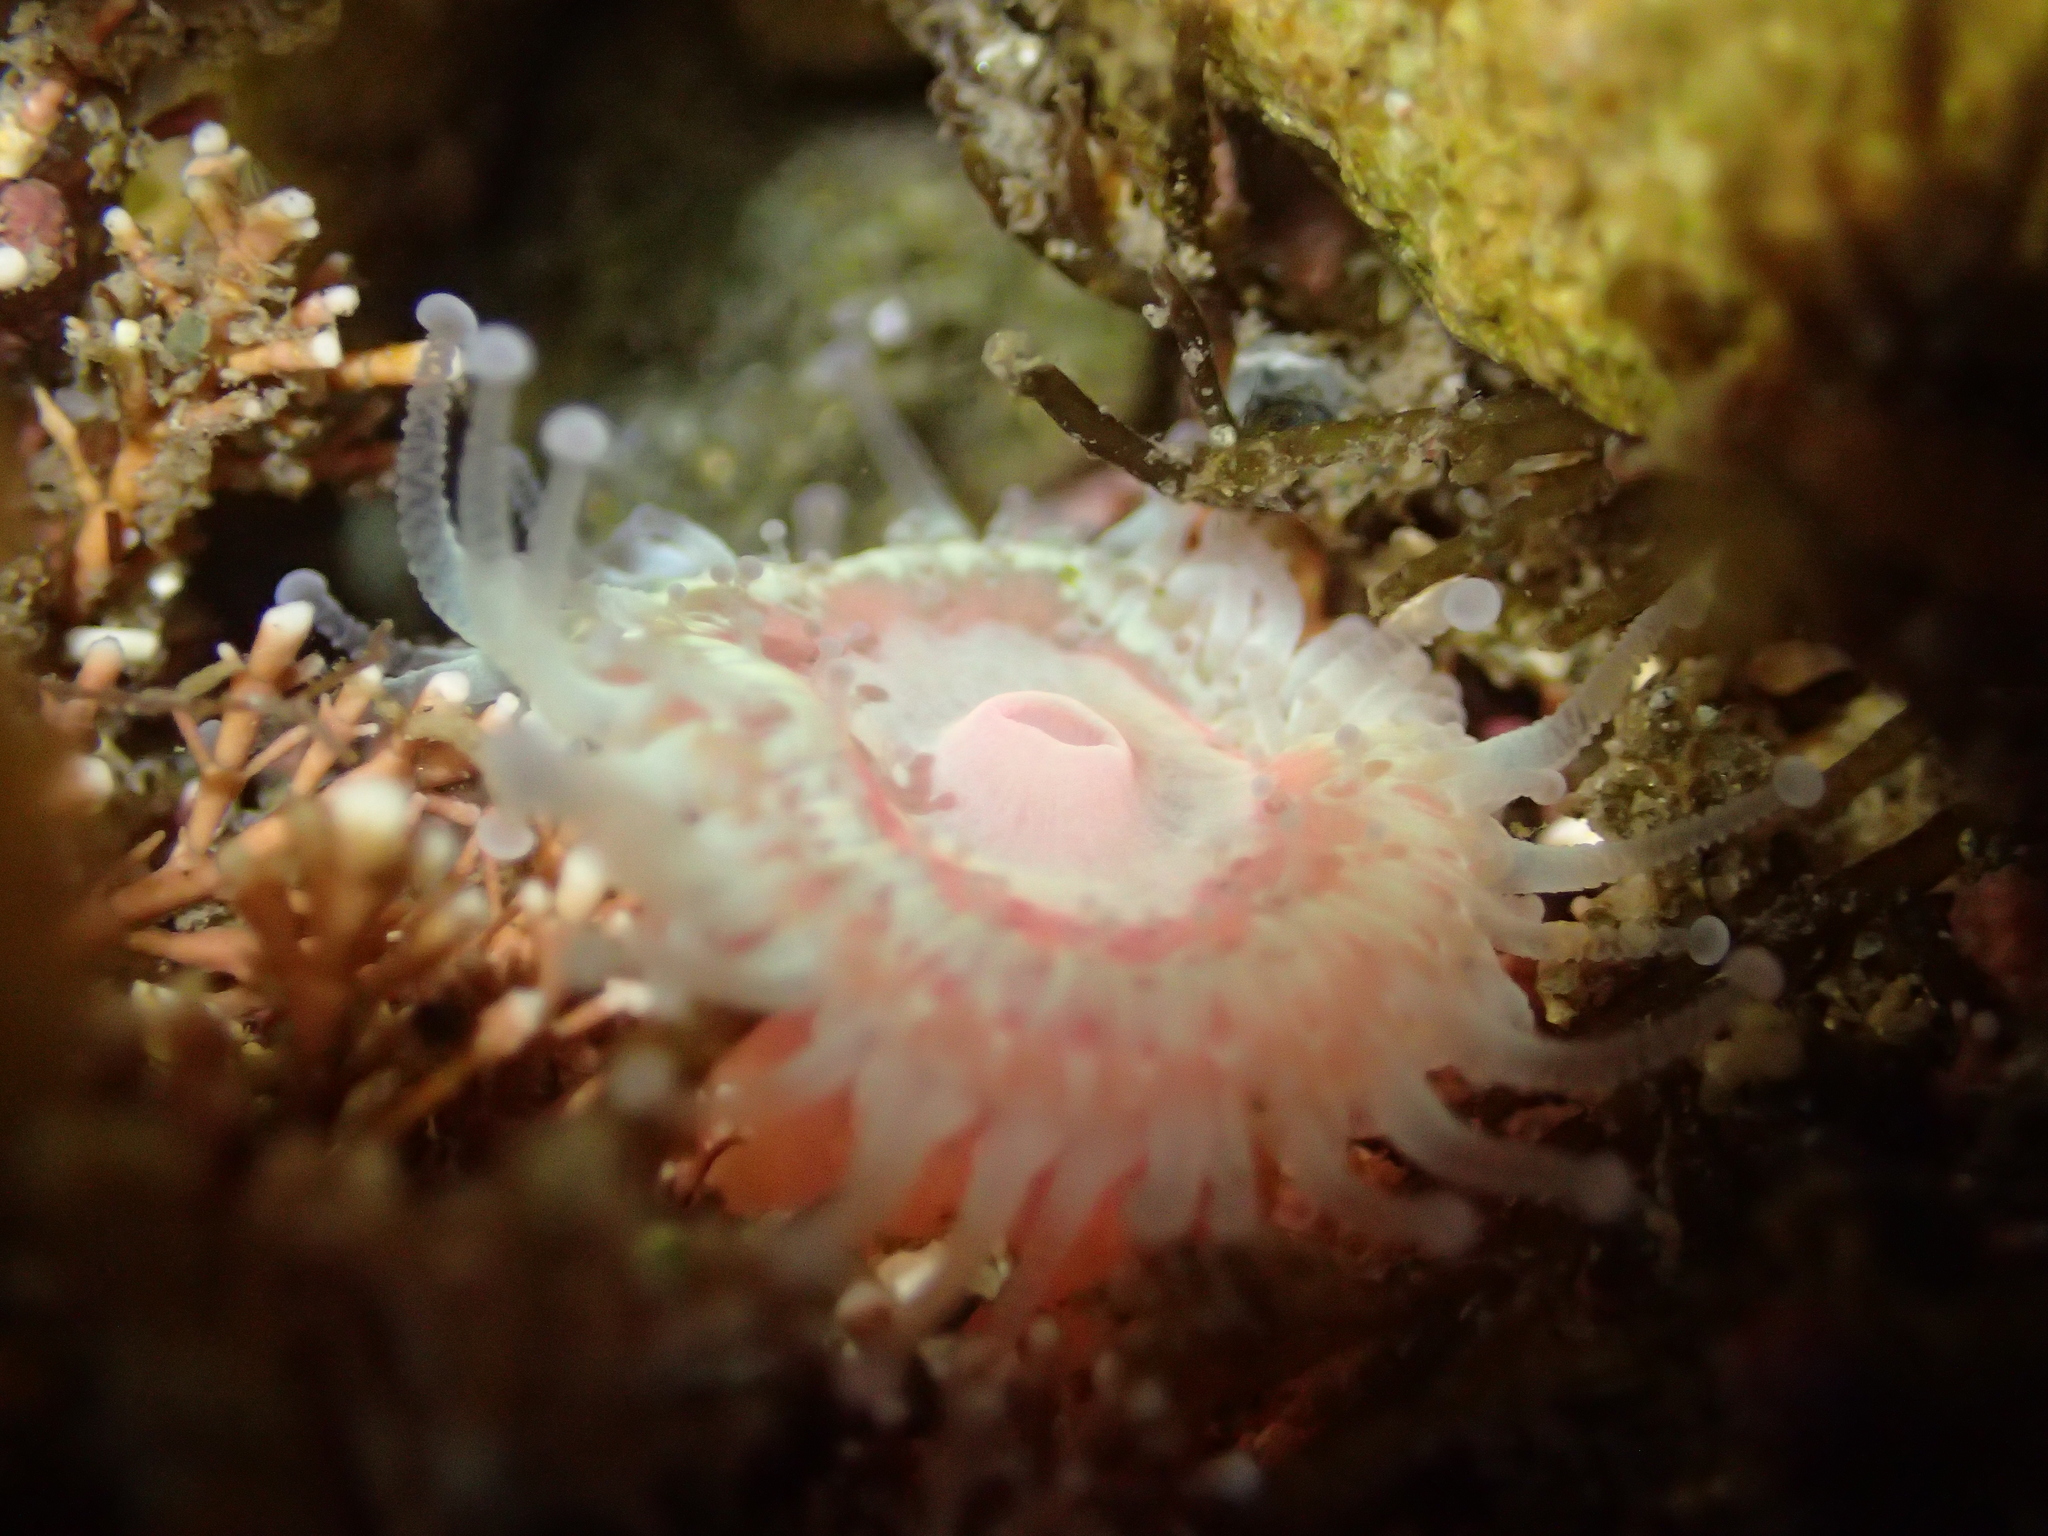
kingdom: Animalia
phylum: Cnidaria
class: Anthozoa
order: Corallimorpharia
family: Corallimorphidae
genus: Corynactis
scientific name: Corynactis australis
